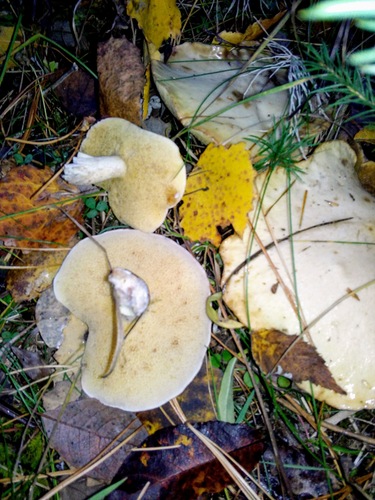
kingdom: Fungi
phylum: Basidiomycota
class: Agaricomycetes
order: Boletales
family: Suillaceae
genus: Suillus
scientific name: Suillus placidus
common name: Slippery white bolete
